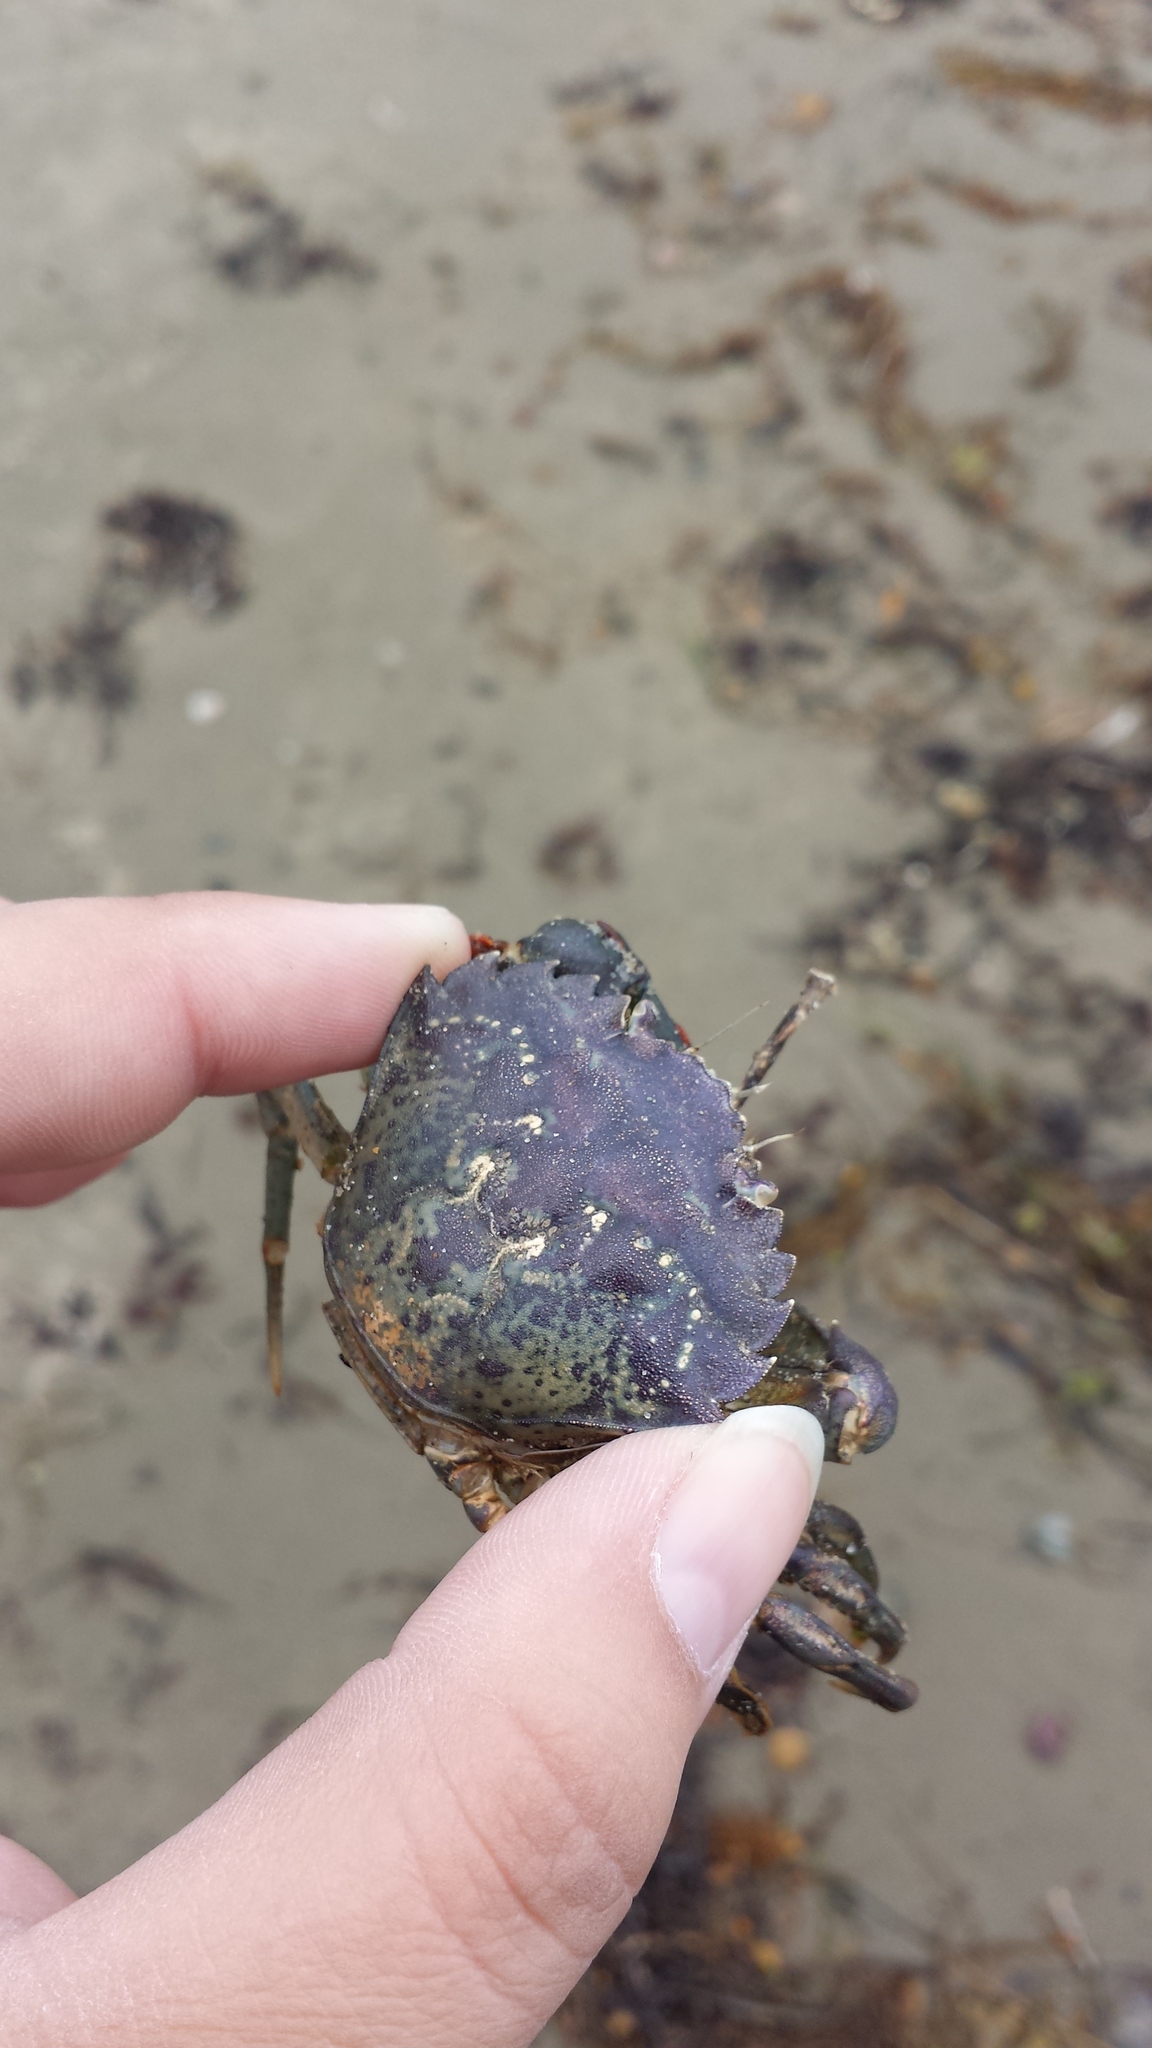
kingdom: Animalia
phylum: Arthropoda
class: Malacostraca
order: Decapoda
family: Carcinidae
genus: Carcinus
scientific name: Carcinus maenas
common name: European green crab
